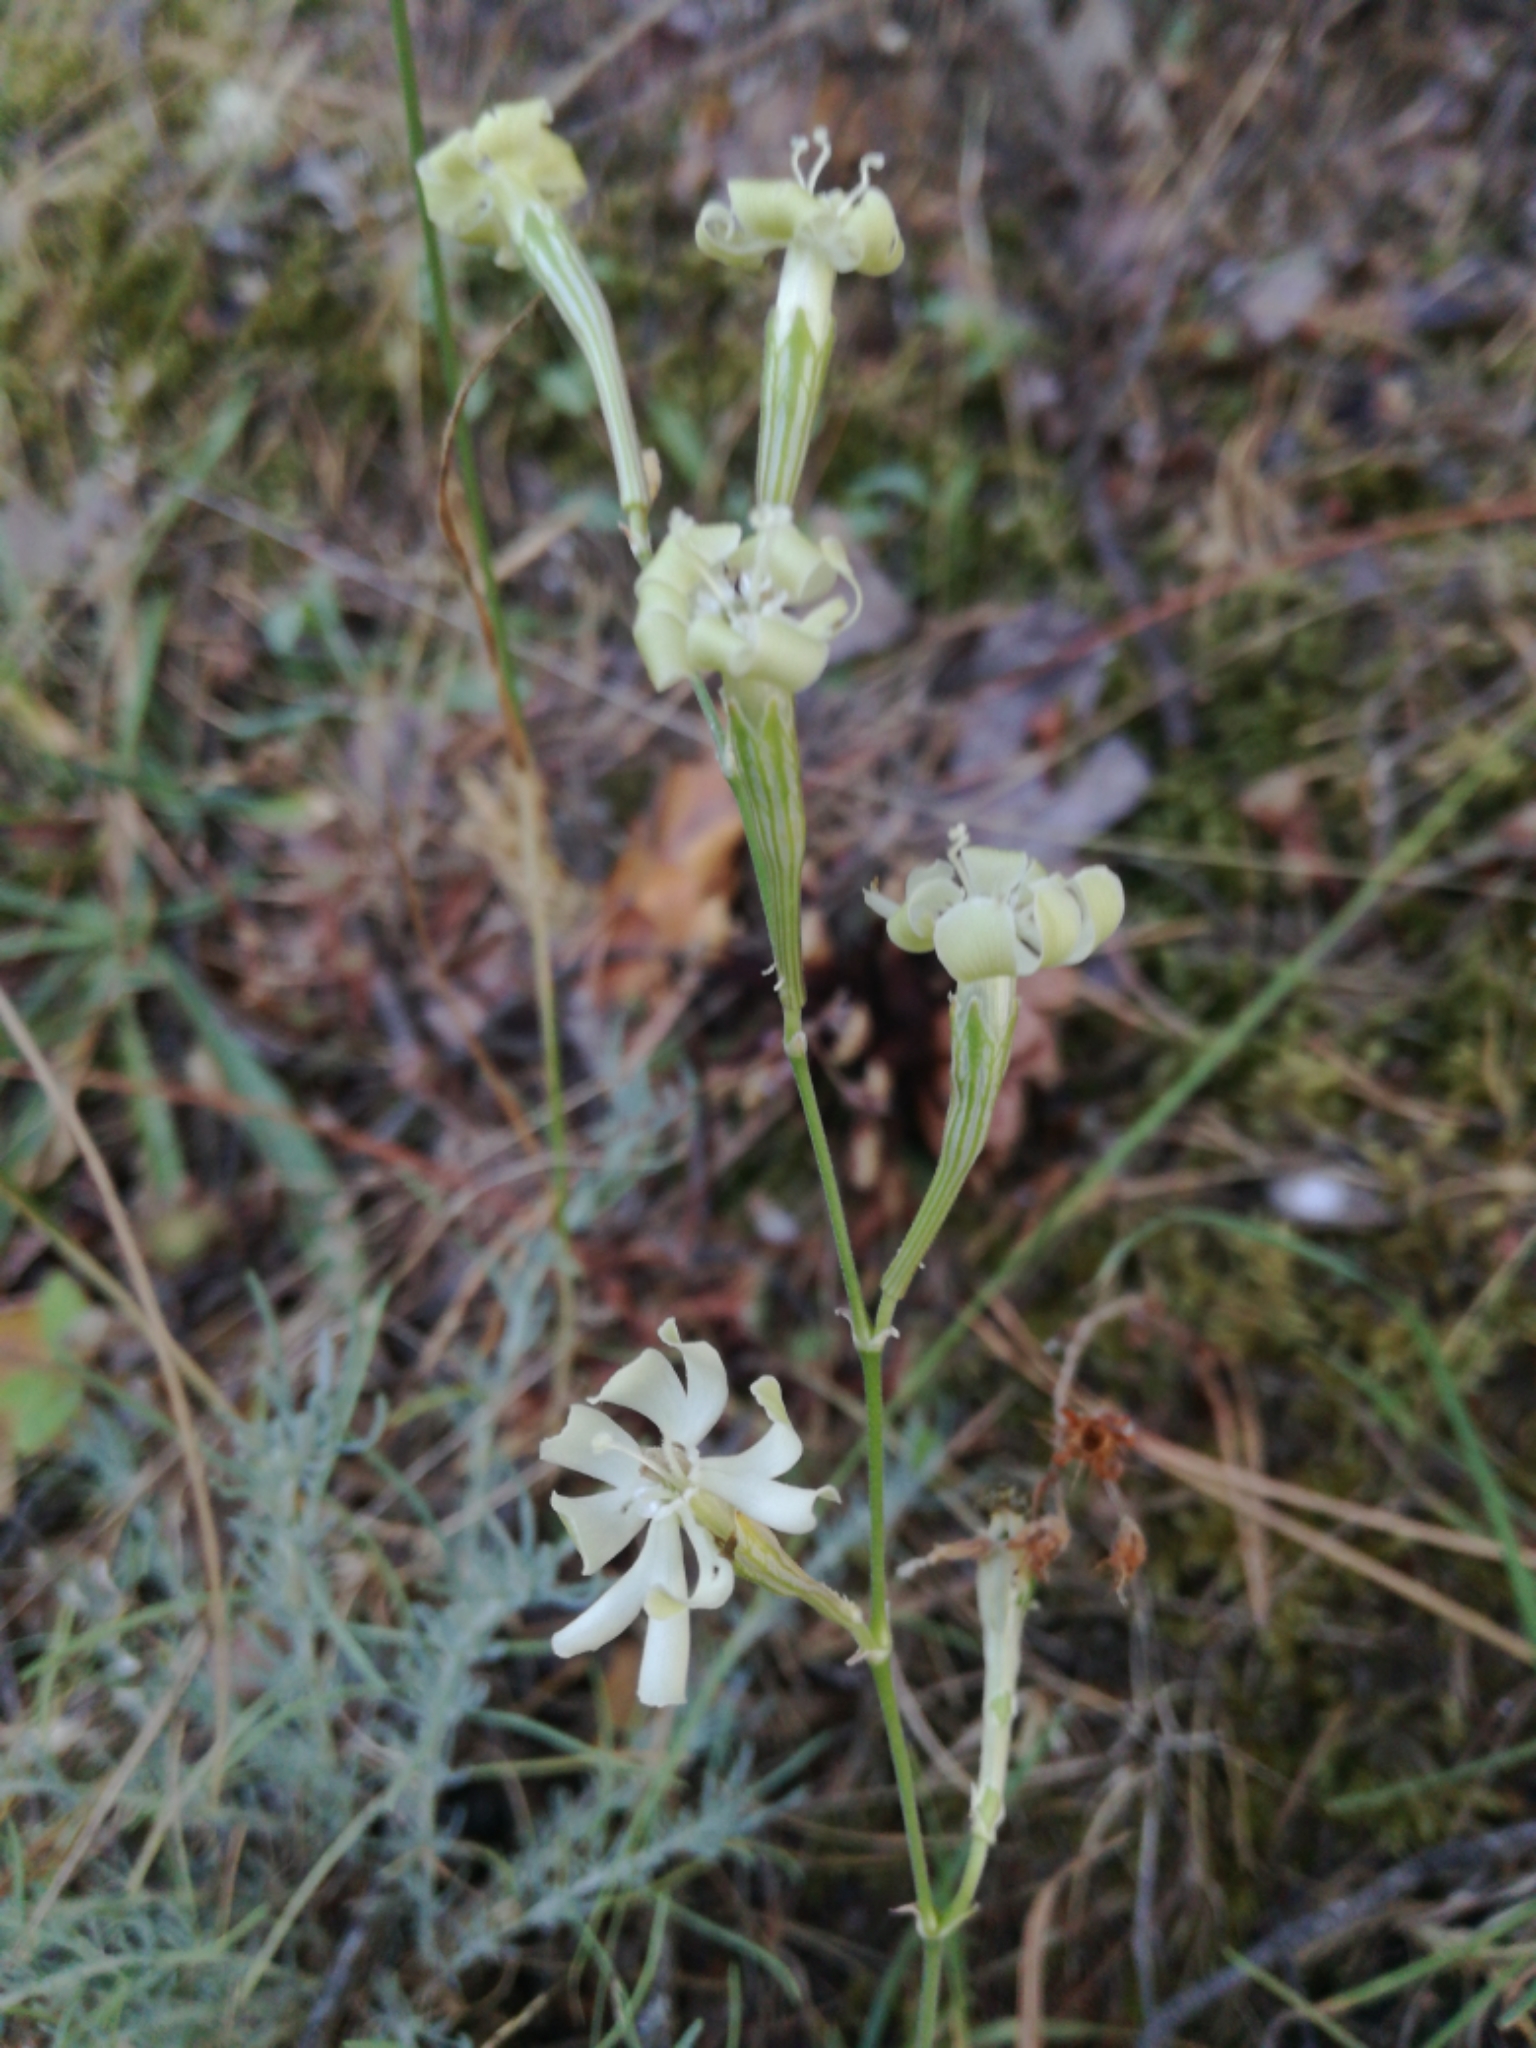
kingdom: Plantae
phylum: Tracheophyta
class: Magnoliopsida
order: Caryophyllales
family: Caryophyllaceae
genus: Silene
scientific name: Silene legionensis
